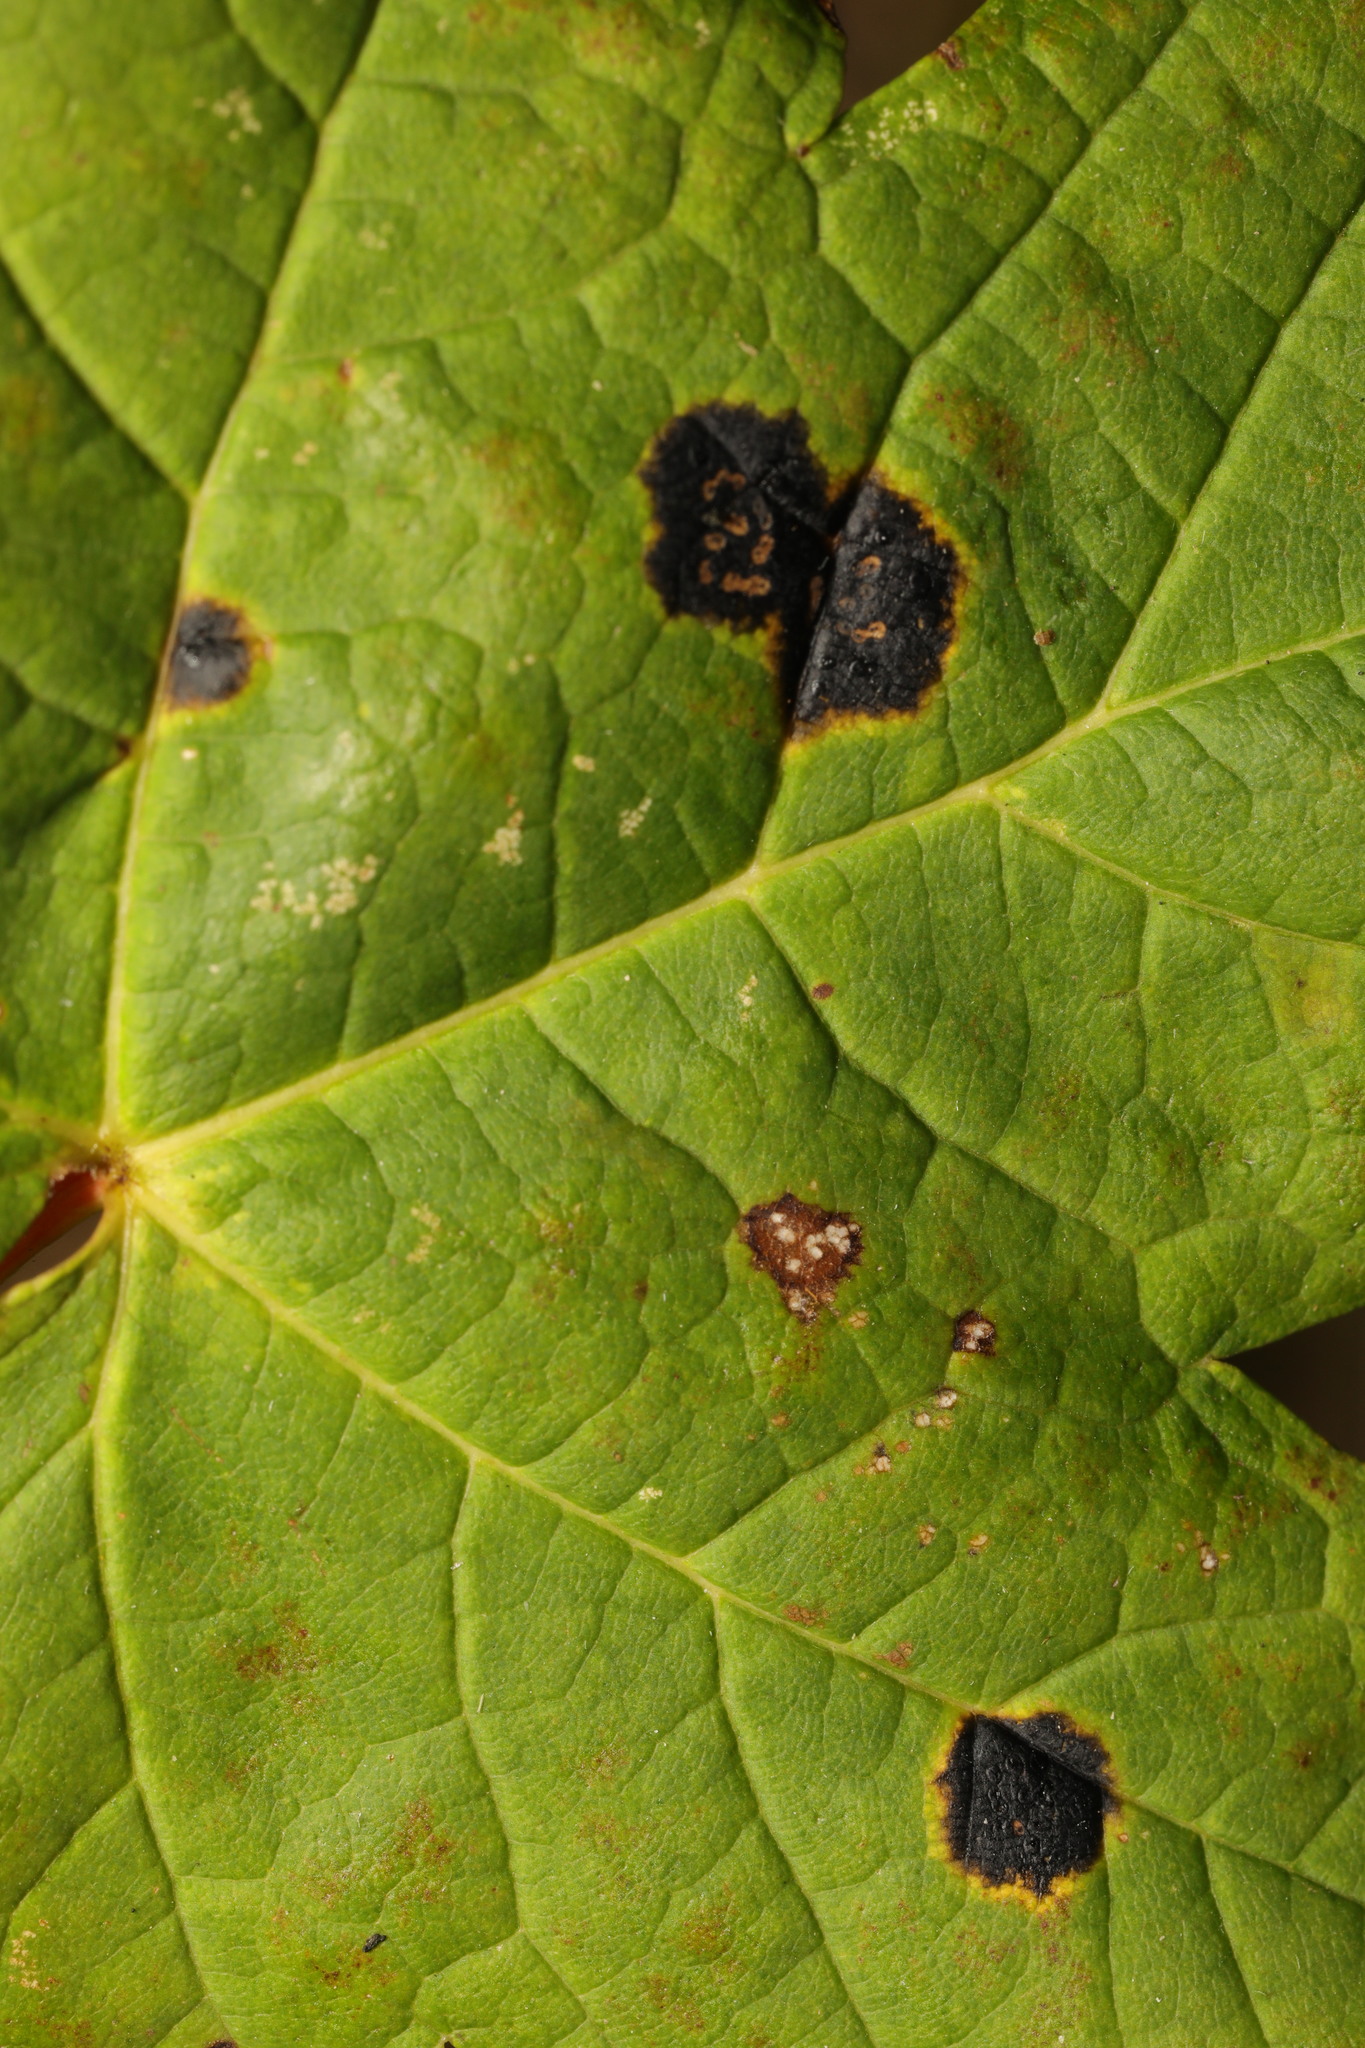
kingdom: Fungi
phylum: Ascomycota
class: Leotiomycetes
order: Rhytismatales
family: Rhytismataceae
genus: Rhytisma
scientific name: Rhytisma acerinum
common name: European tar spot
